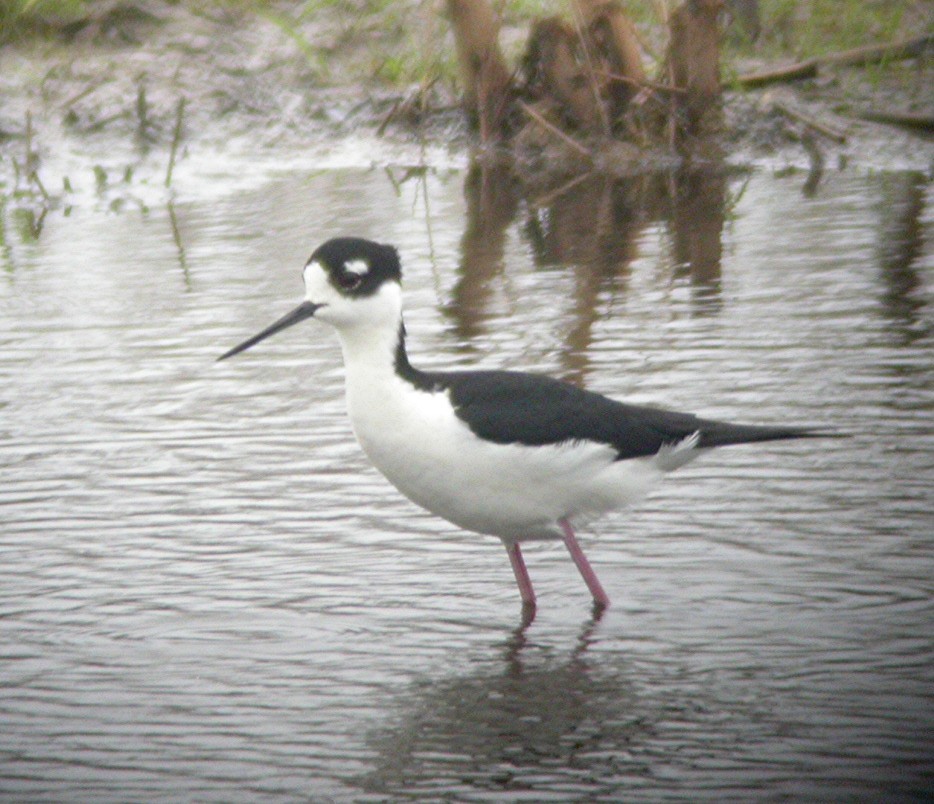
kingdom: Animalia
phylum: Chordata
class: Aves
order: Charadriiformes
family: Recurvirostridae
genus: Himantopus
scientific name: Himantopus mexicanus
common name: Black-necked stilt
